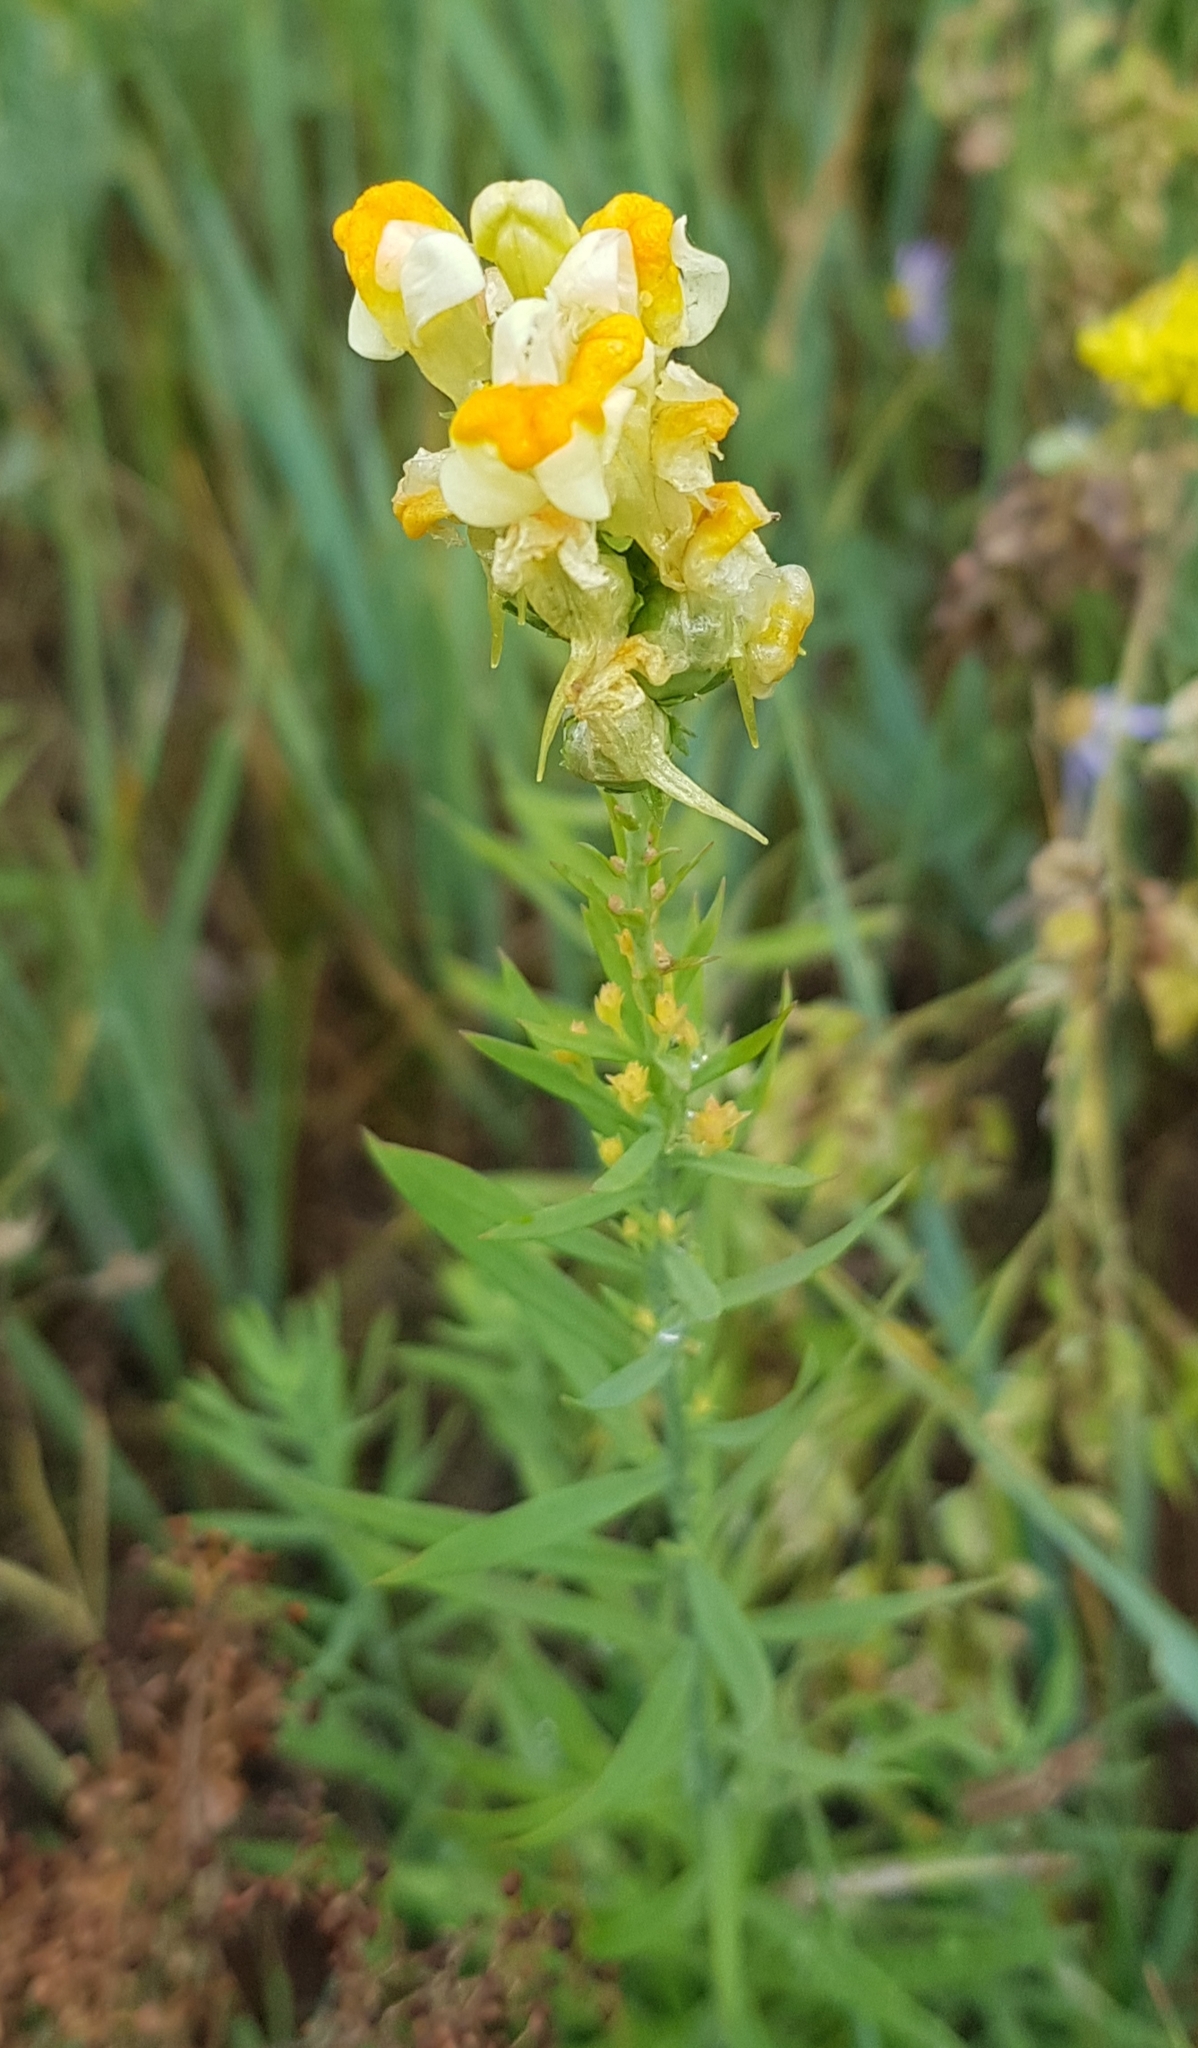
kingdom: Plantae
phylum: Tracheophyta
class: Magnoliopsida
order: Lamiales
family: Plantaginaceae
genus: Linaria
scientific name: Linaria acutiloba
